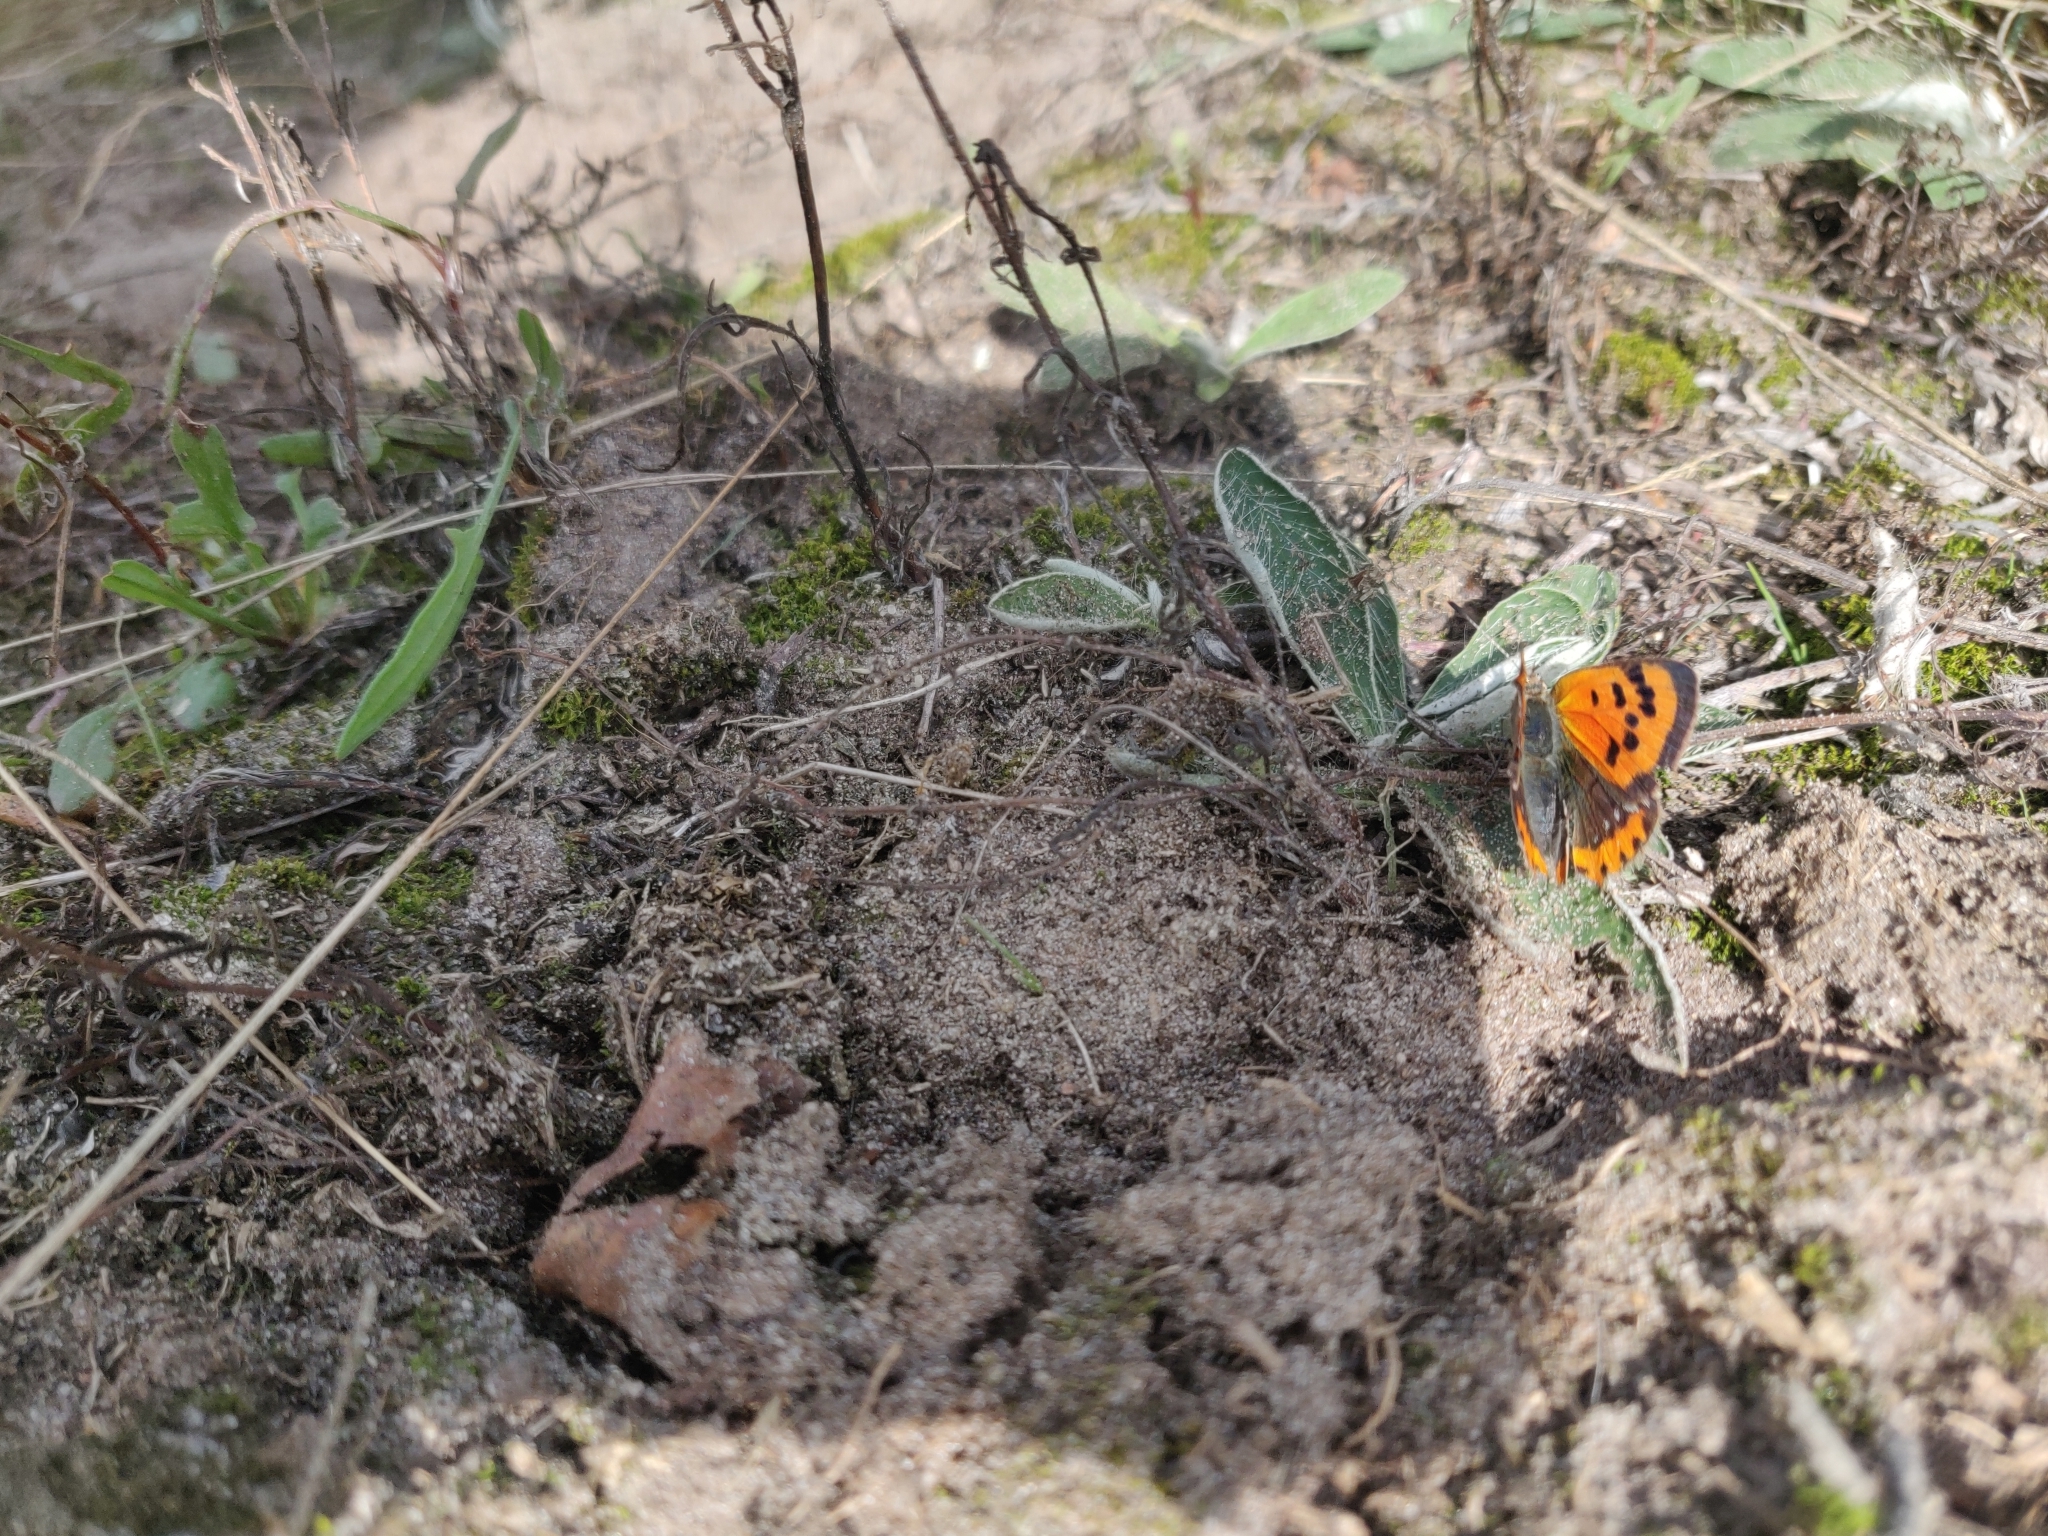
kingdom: Animalia
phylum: Arthropoda
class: Insecta
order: Lepidoptera
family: Lycaenidae
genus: Lycaena
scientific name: Lycaena phlaeas
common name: Small copper
